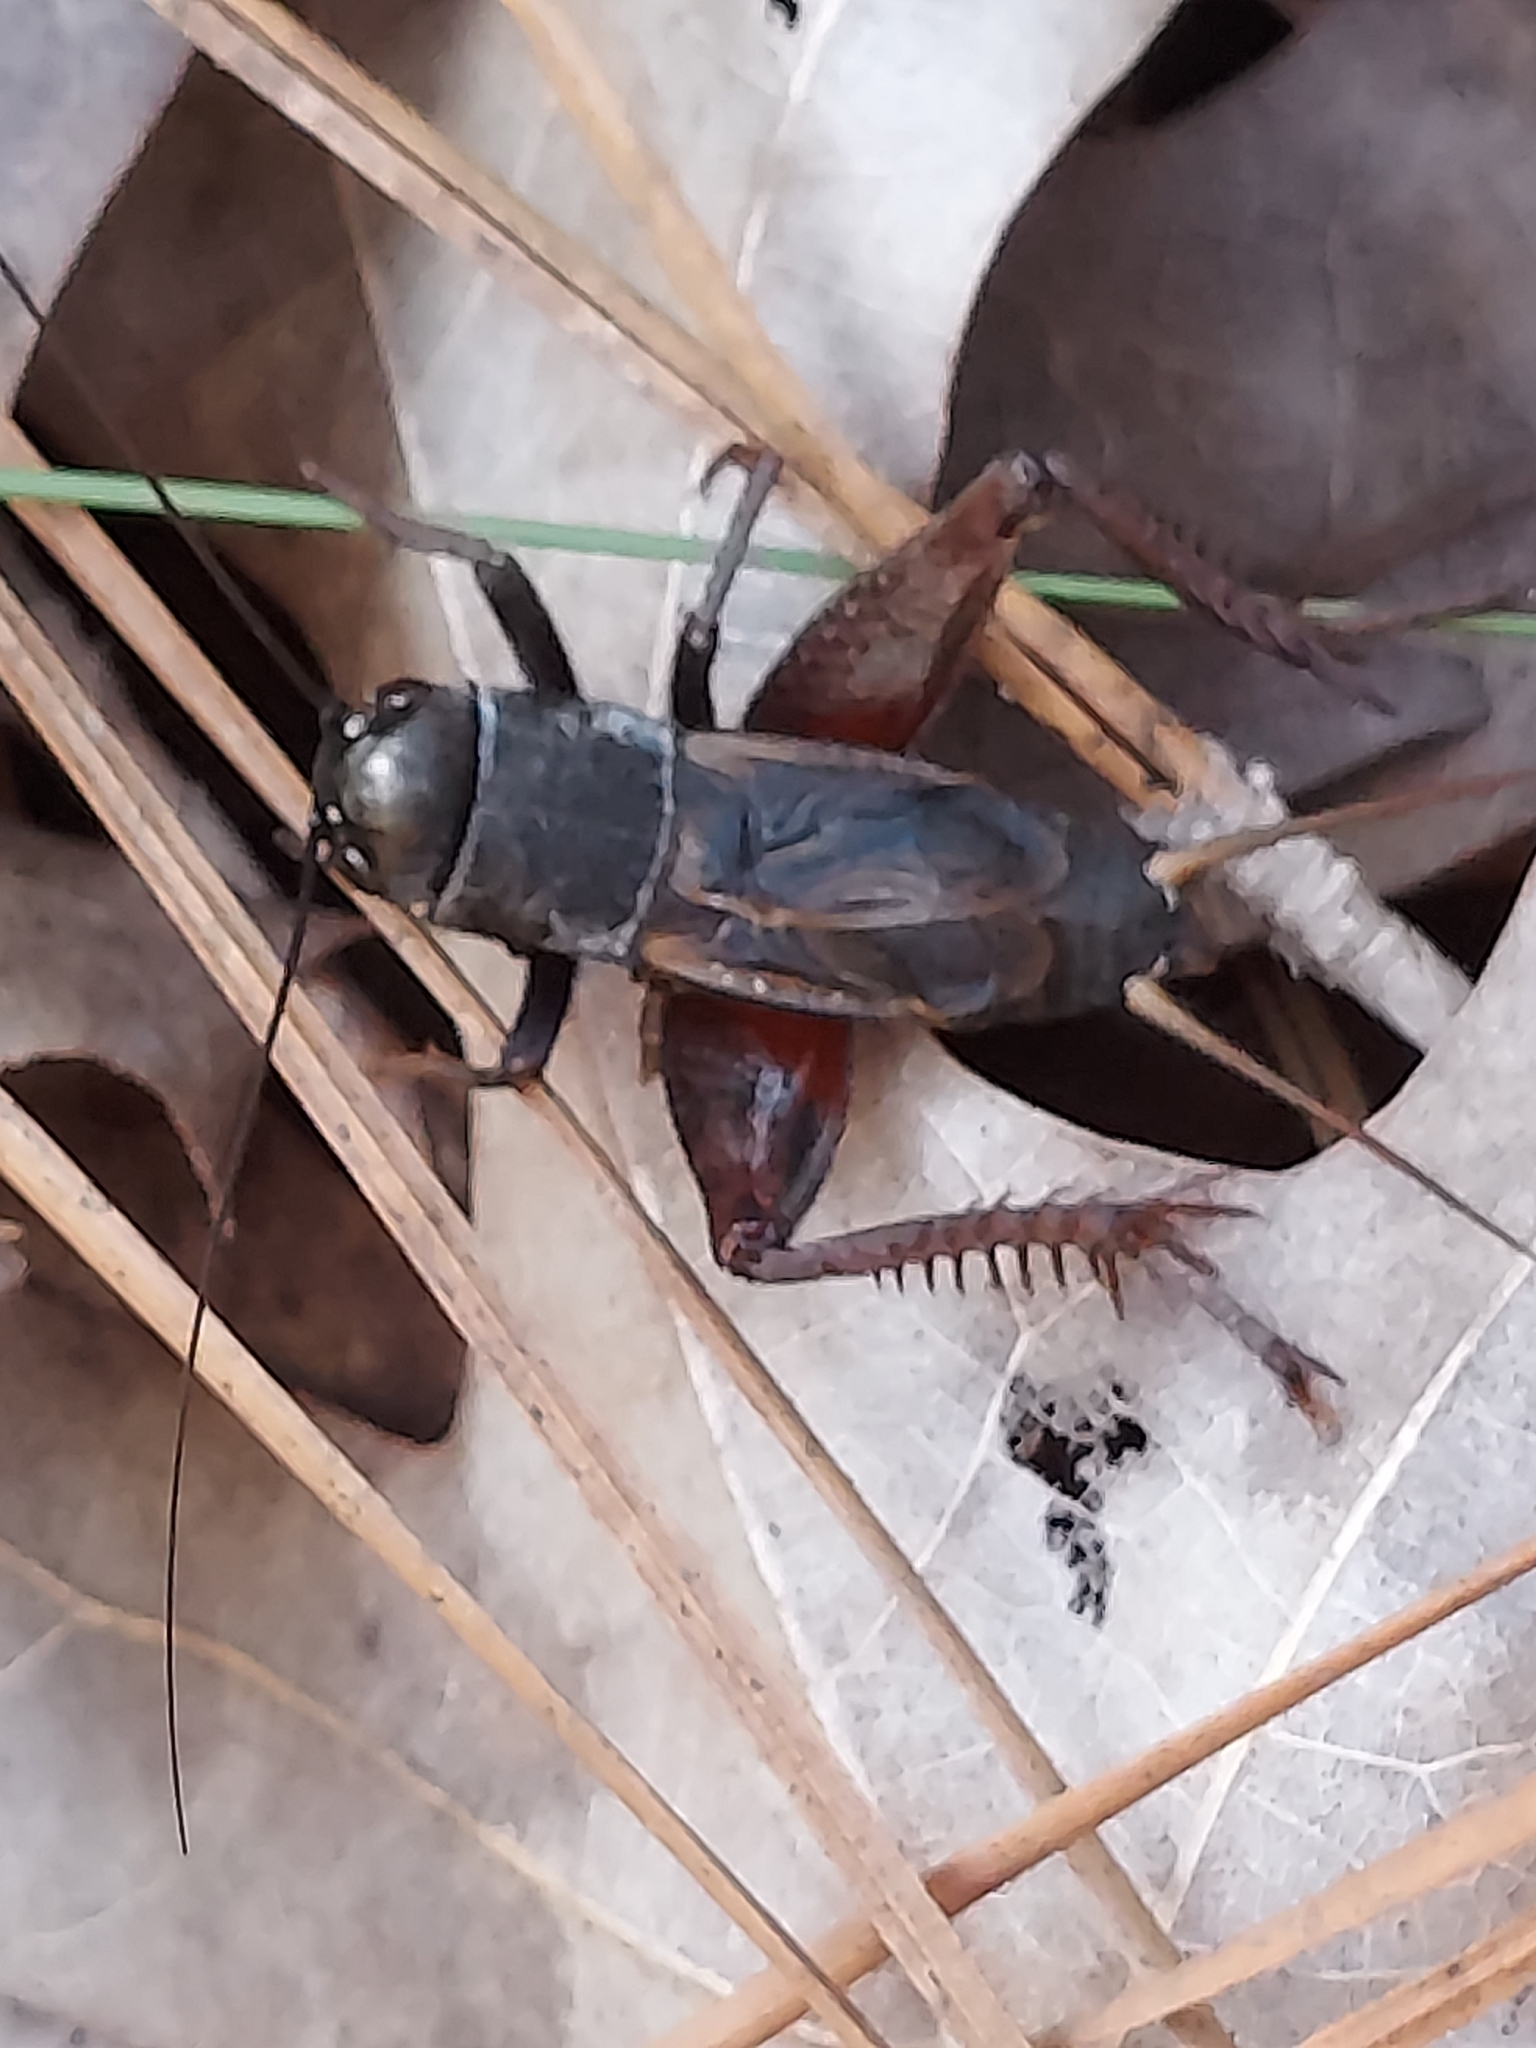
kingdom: Animalia
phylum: Arthropoda
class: Insecta
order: Orthoptera
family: Gryllidae
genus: Gryllus
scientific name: Gryllus
